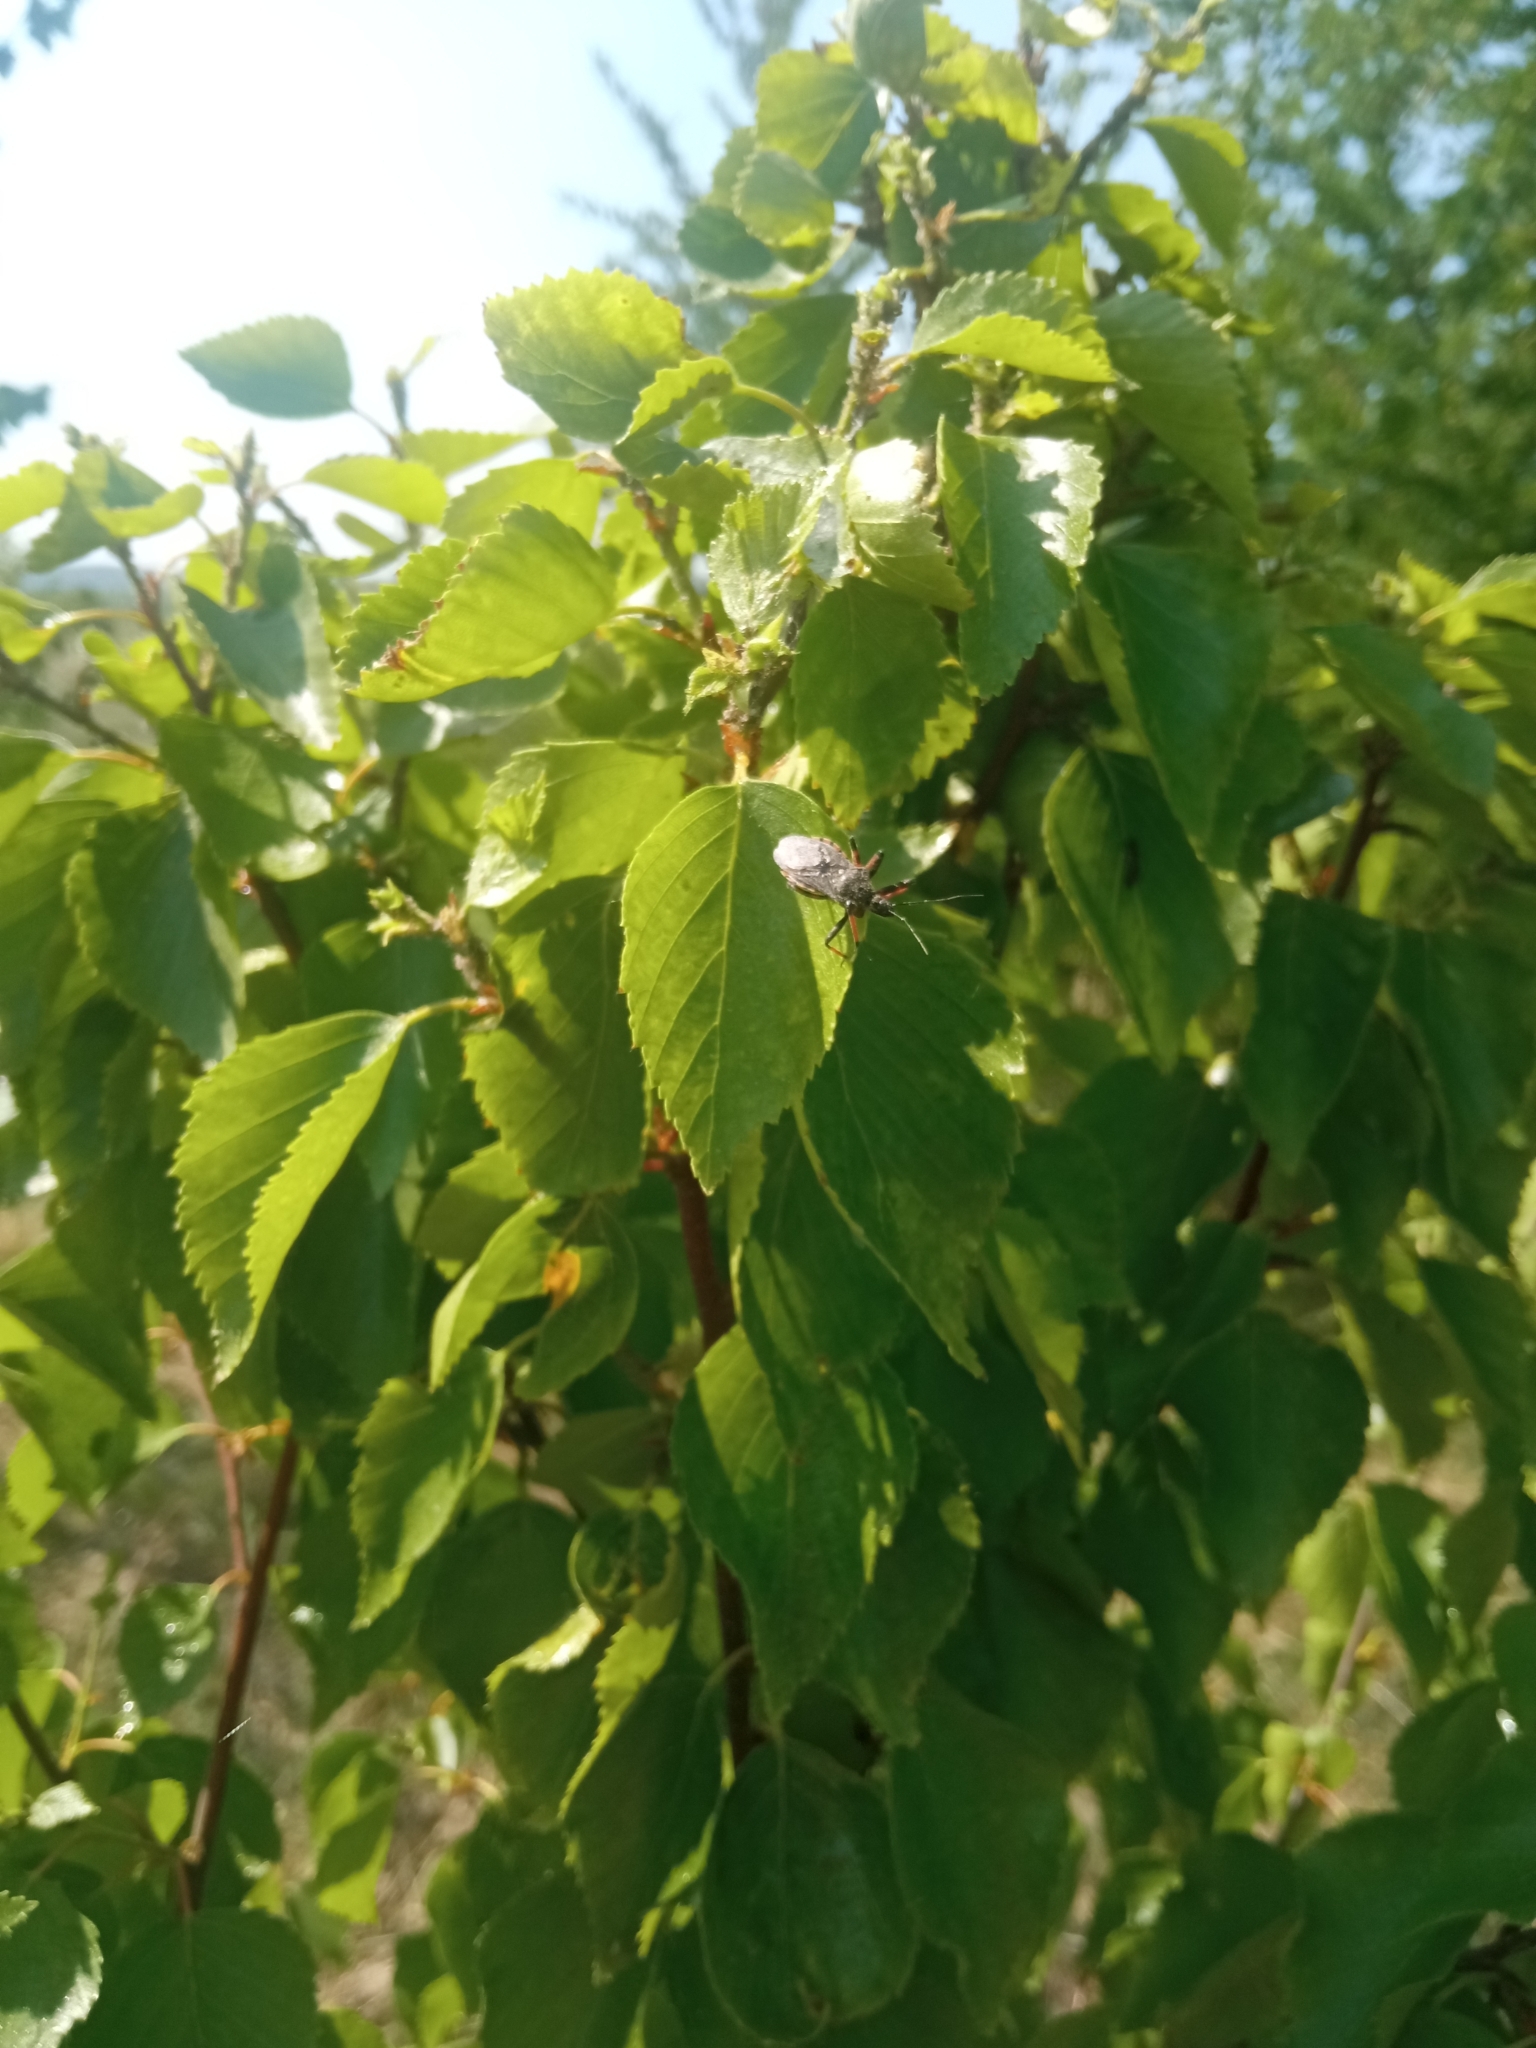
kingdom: Animalia
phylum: Arthropoda
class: Insecta
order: Hemiptera
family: Reduviidae
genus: Rhynocoris
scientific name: Rhynocoris annulatus
